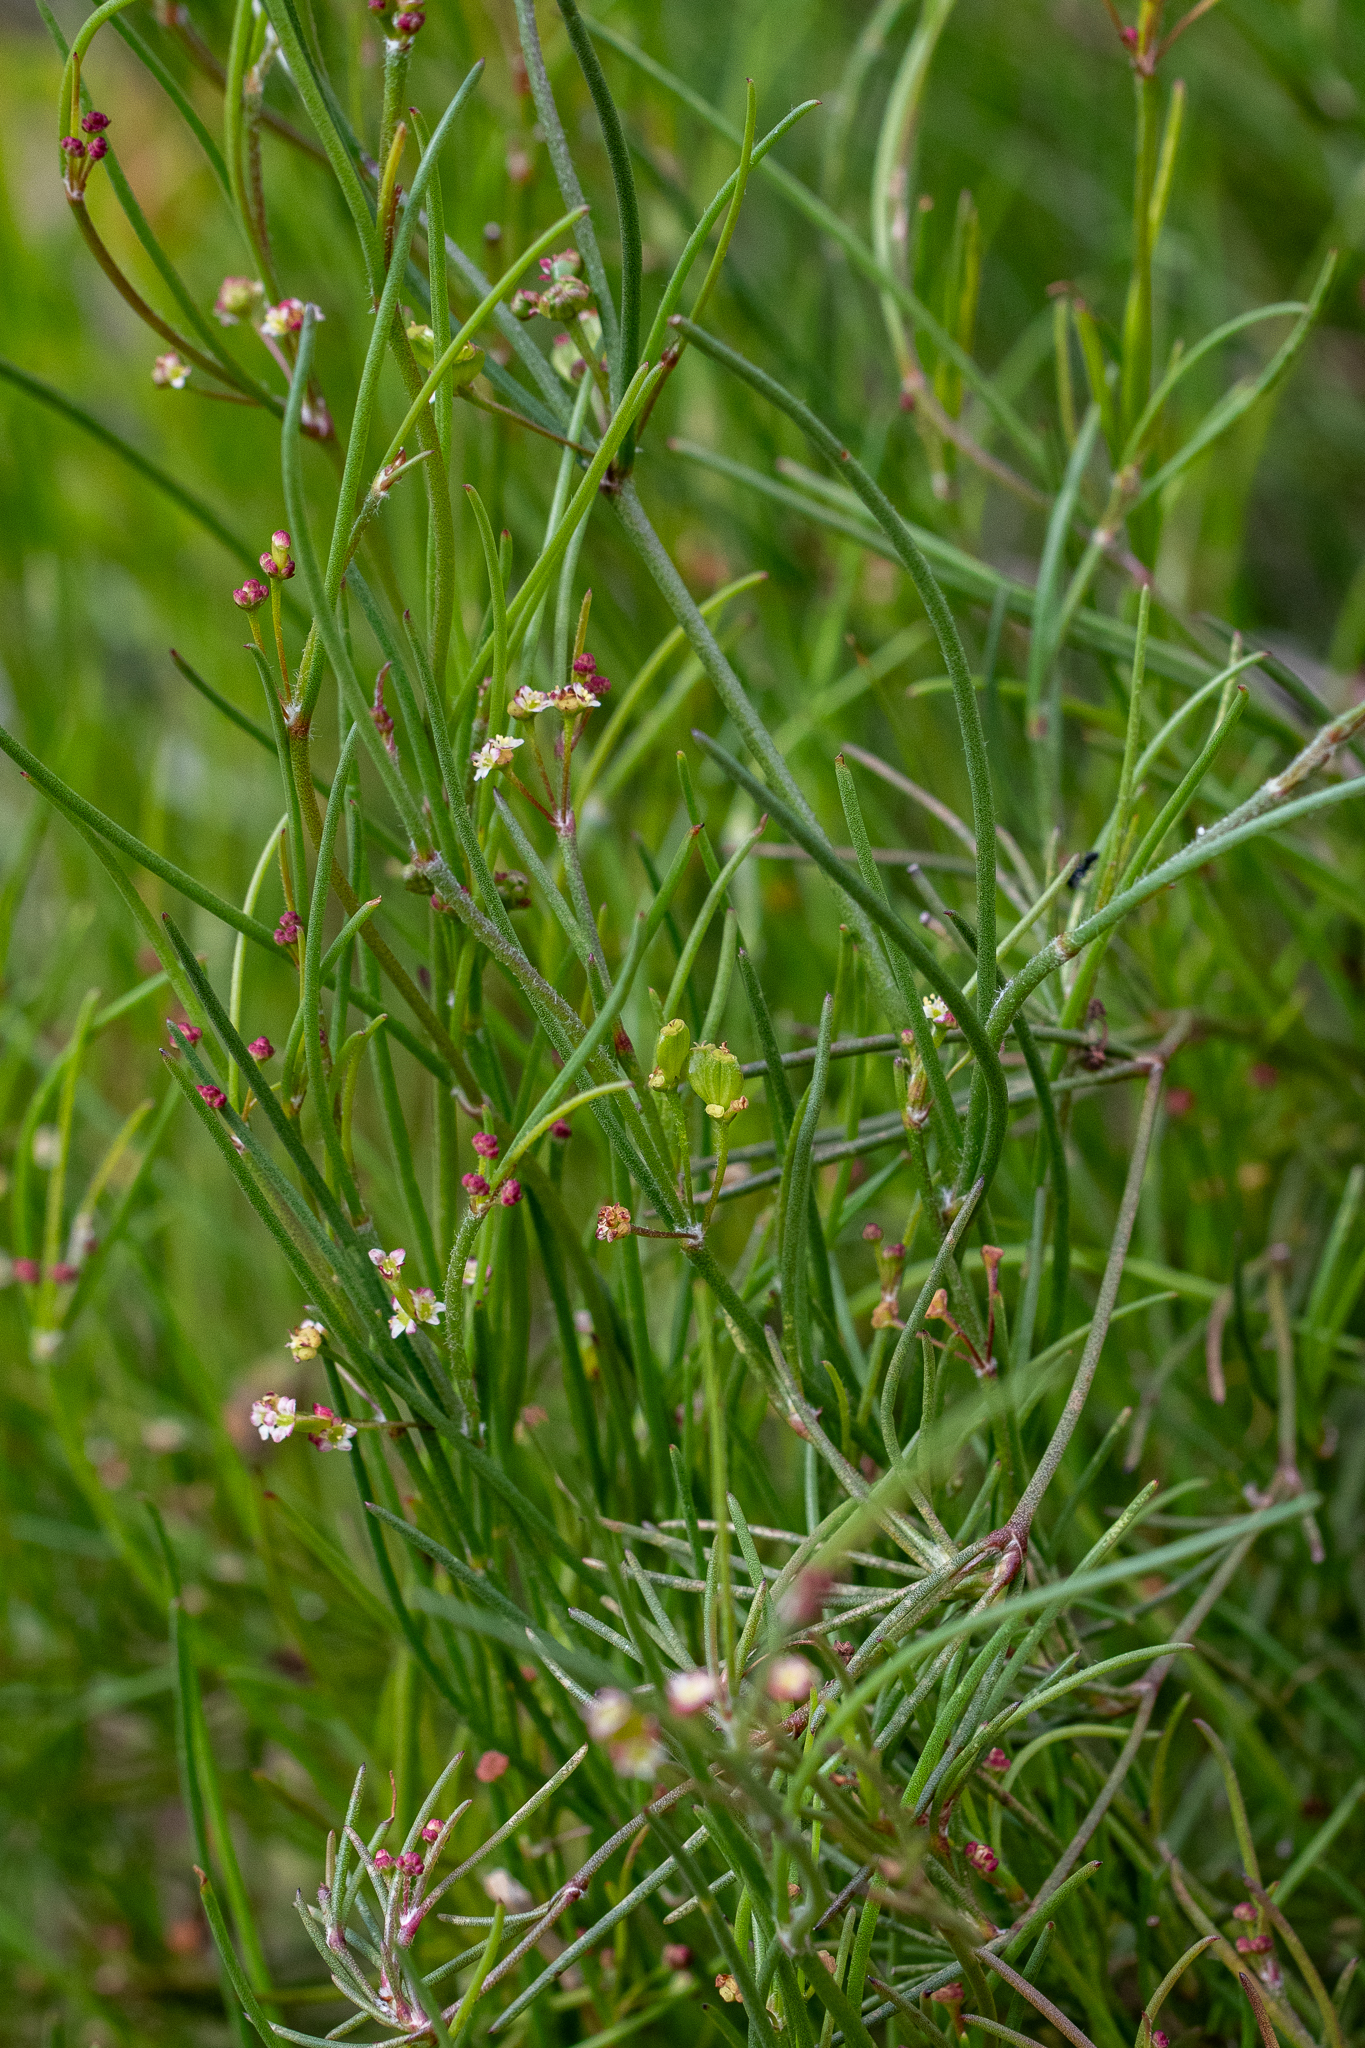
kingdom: Plantae
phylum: Tracheophyta
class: Magnoliopsida
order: Apiales
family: Apiaceae
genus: Centella
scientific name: Centella macrocarpa
